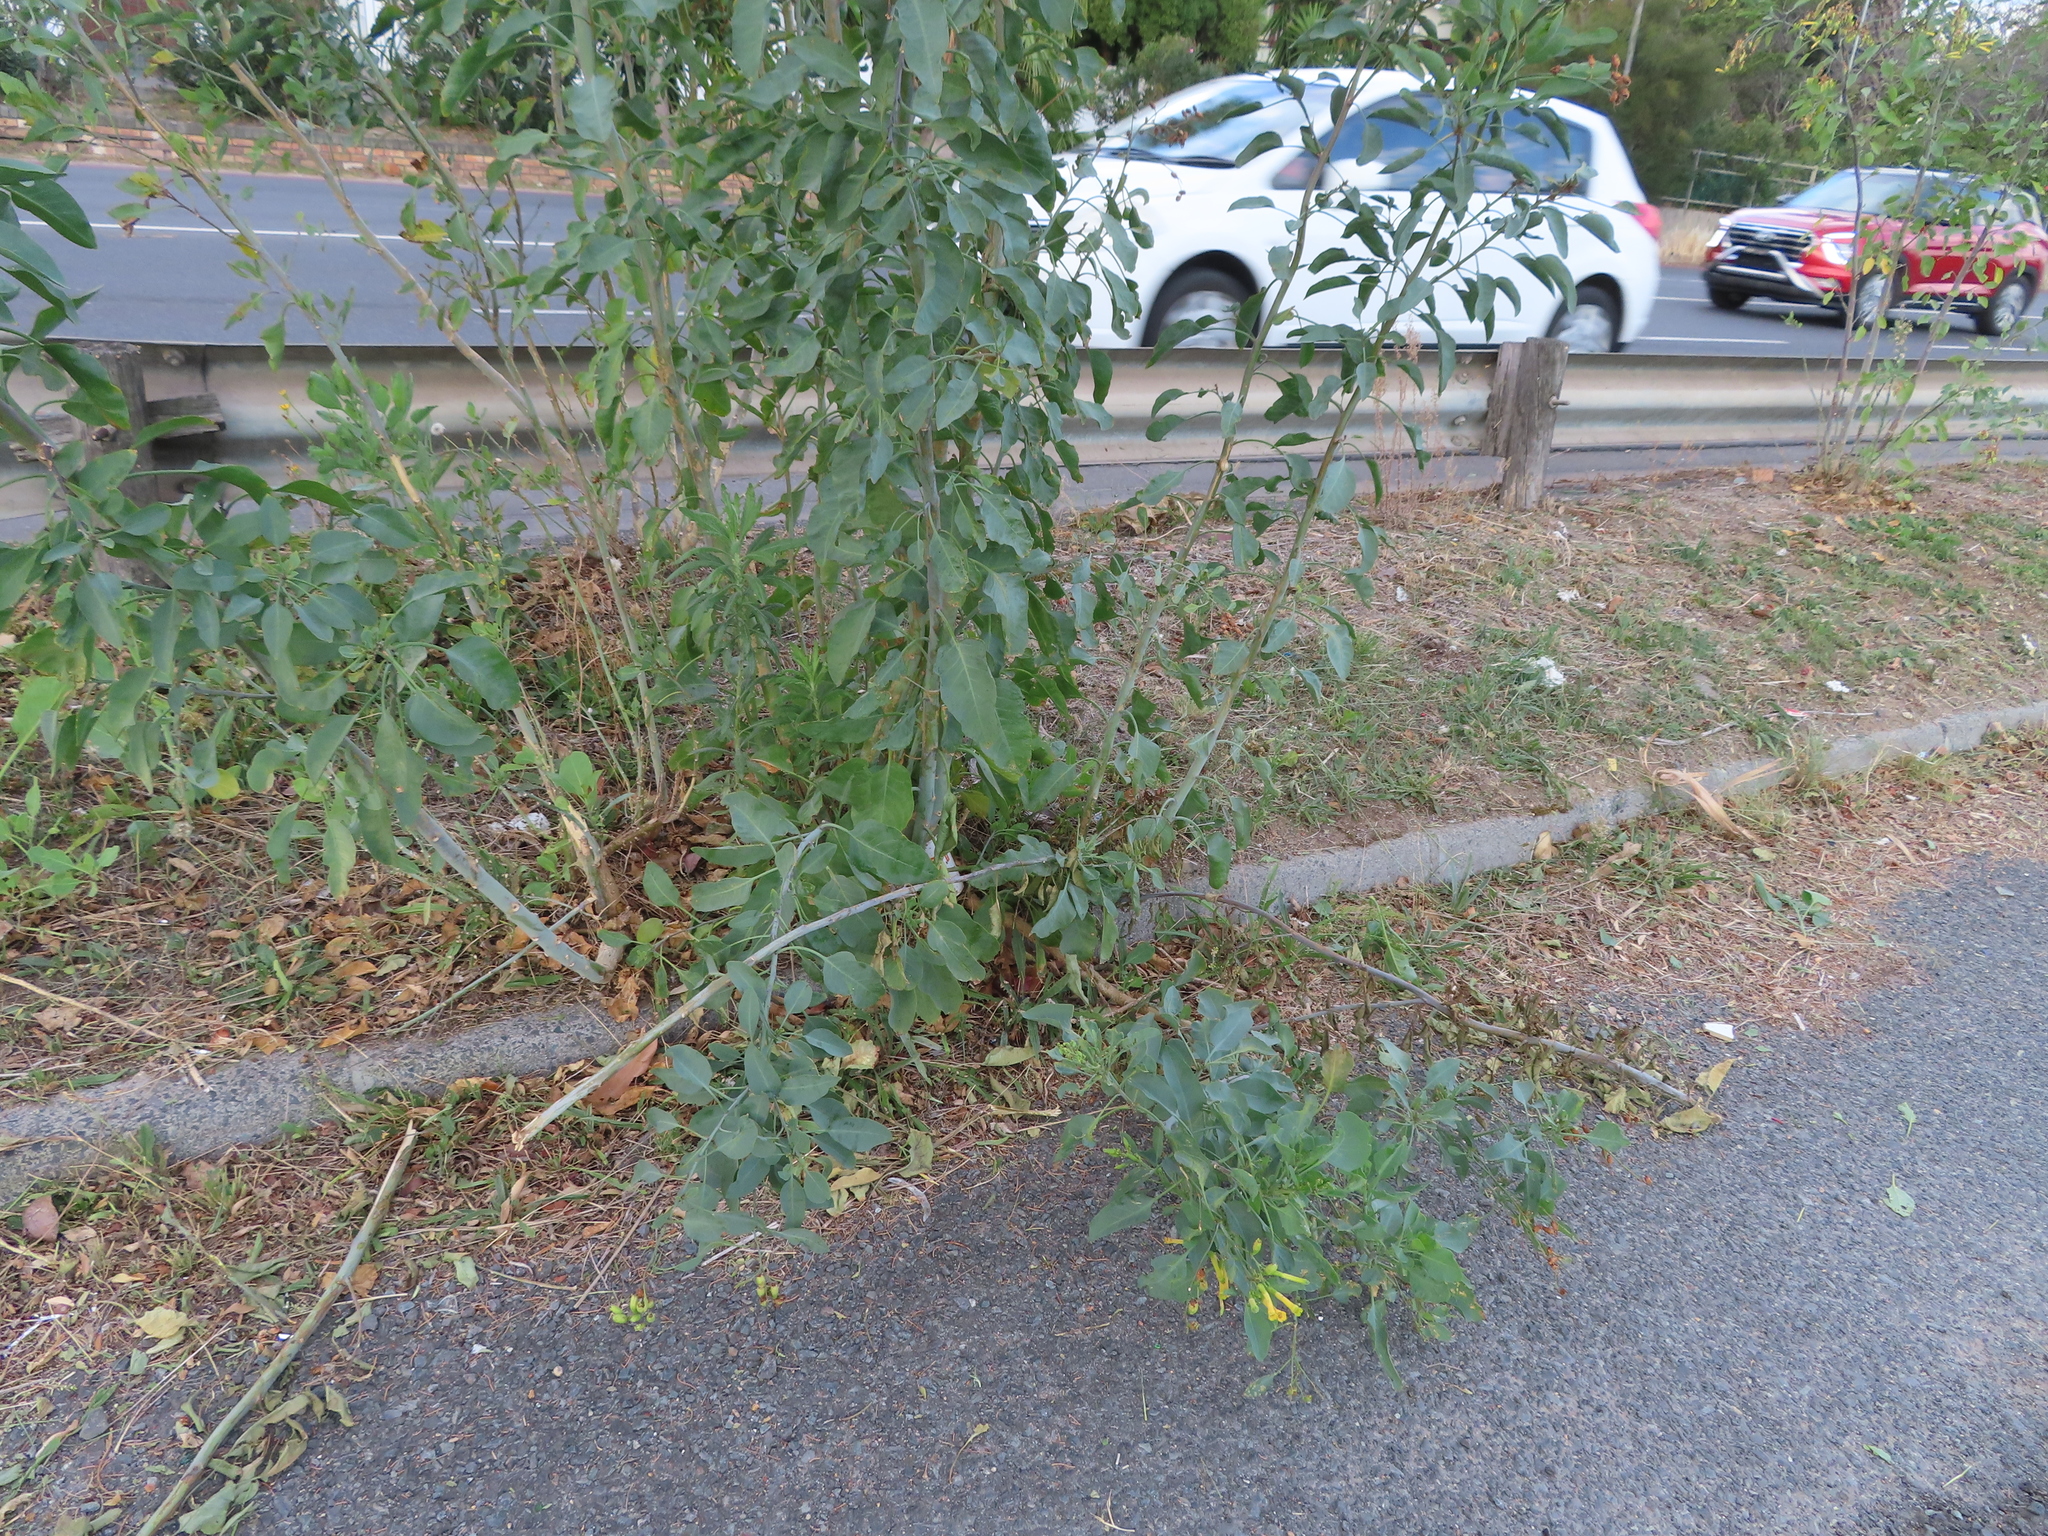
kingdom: Plantae
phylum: Tracheophyta
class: Magnoliopsida
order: Solanales
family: Solanaceae
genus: Nicotiana
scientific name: Nicotiana glauca
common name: Tree tobacco
